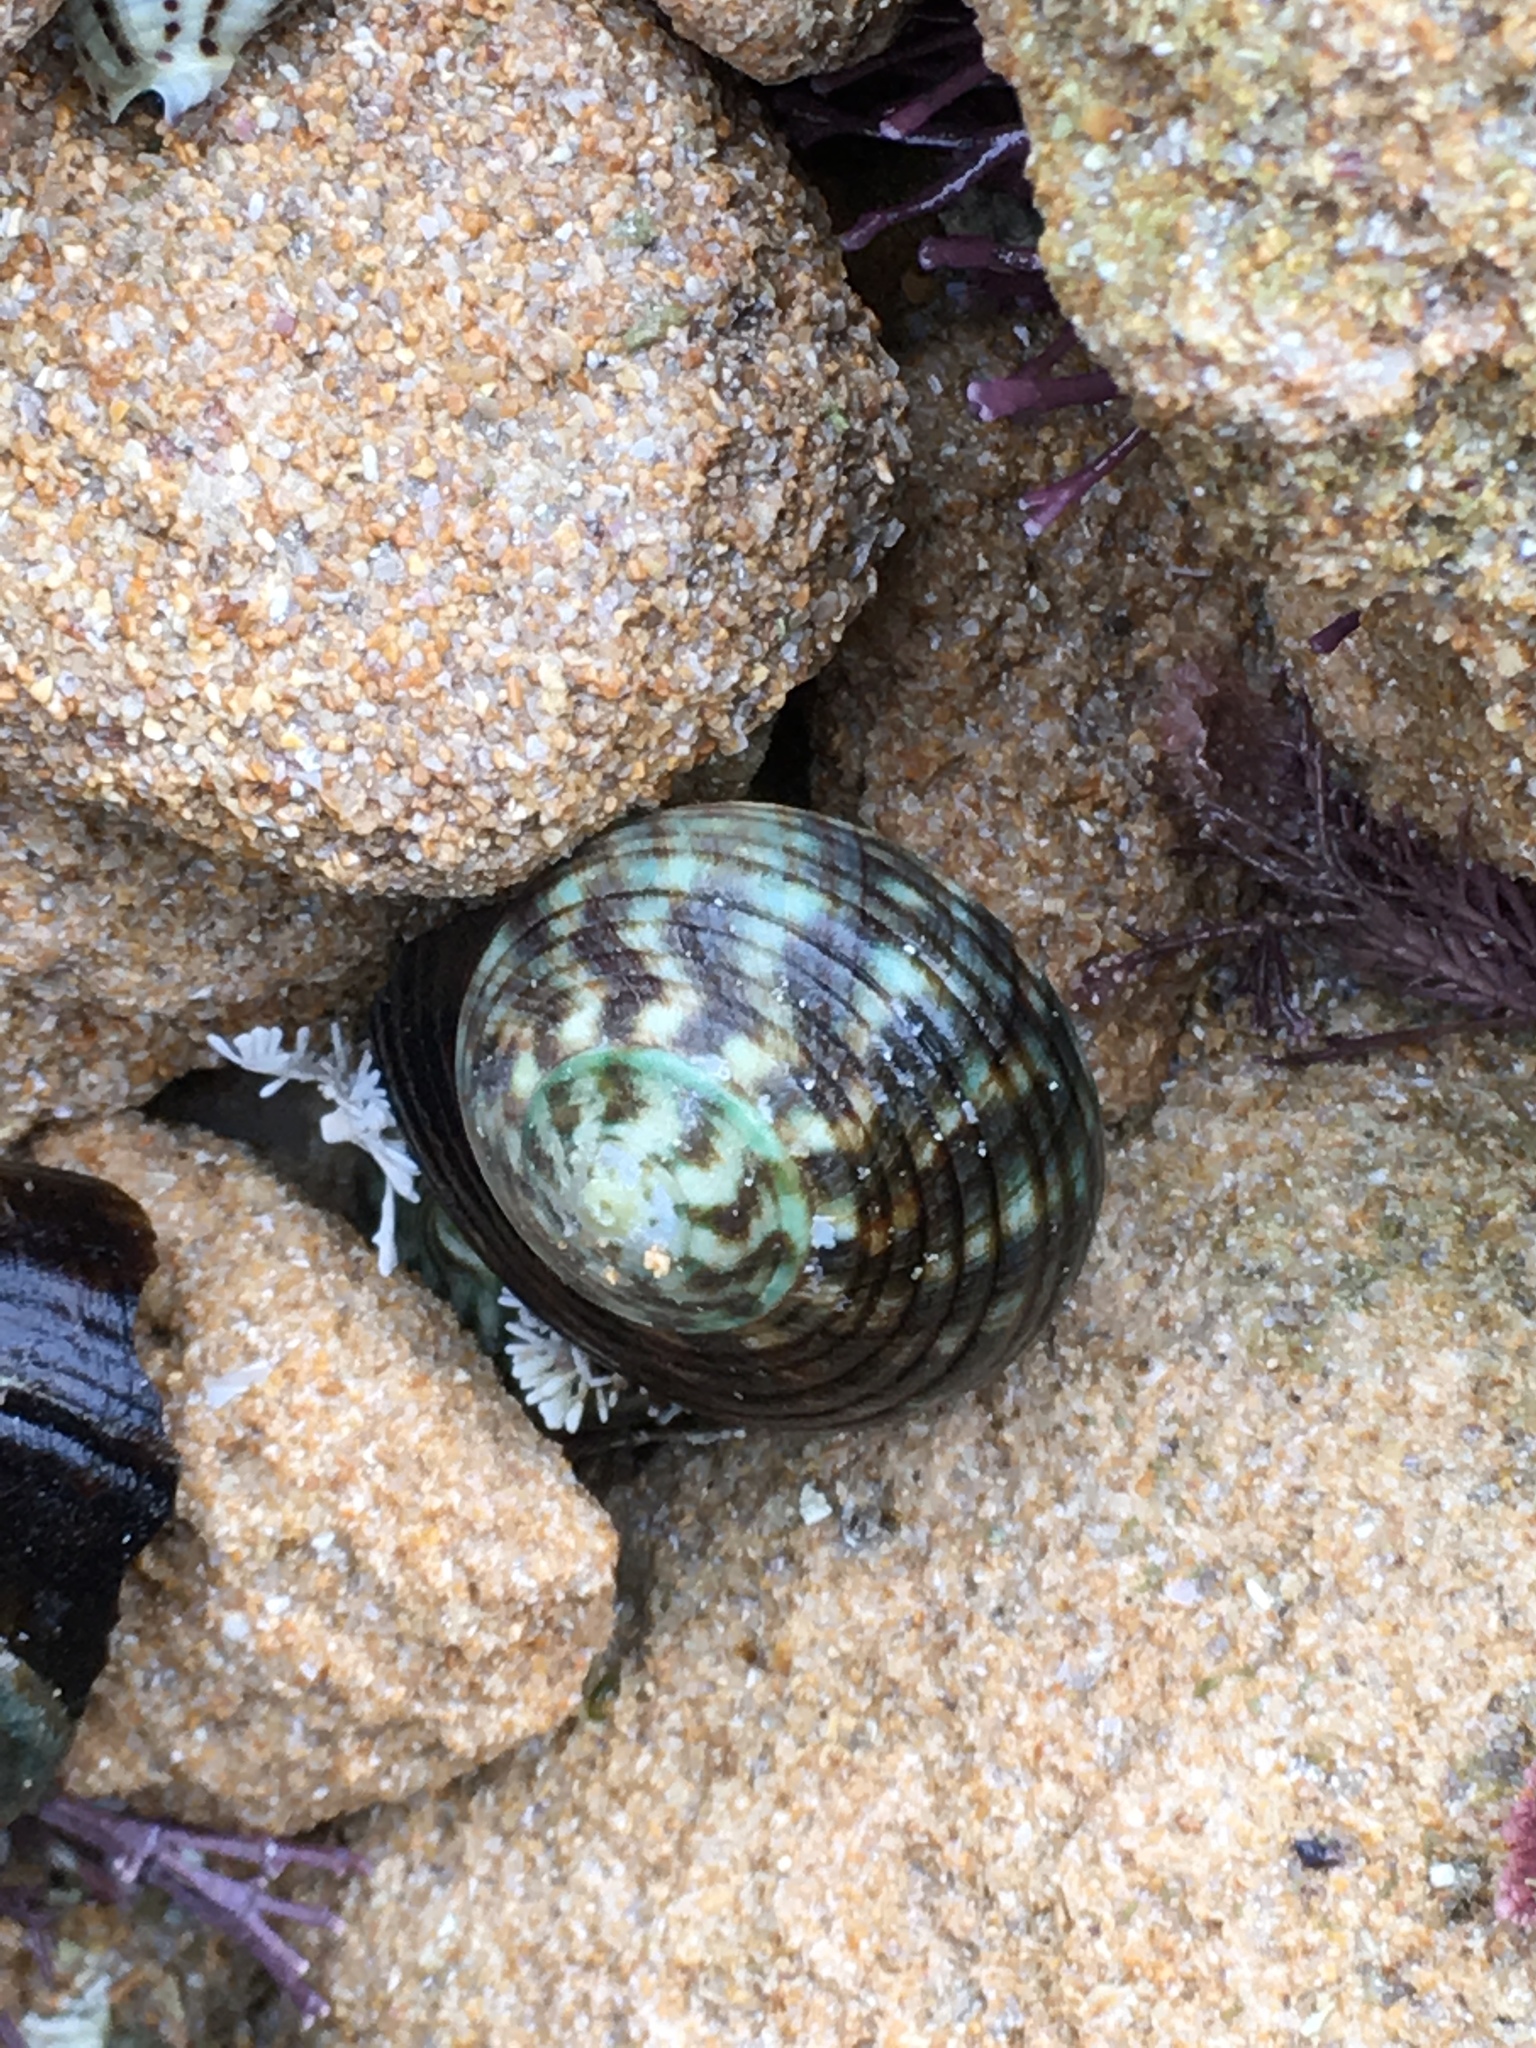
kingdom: Animalia
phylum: Mollusca
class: Gastropoda
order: Trochida
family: Turbinidae
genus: Lunella
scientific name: Lunella undulata
